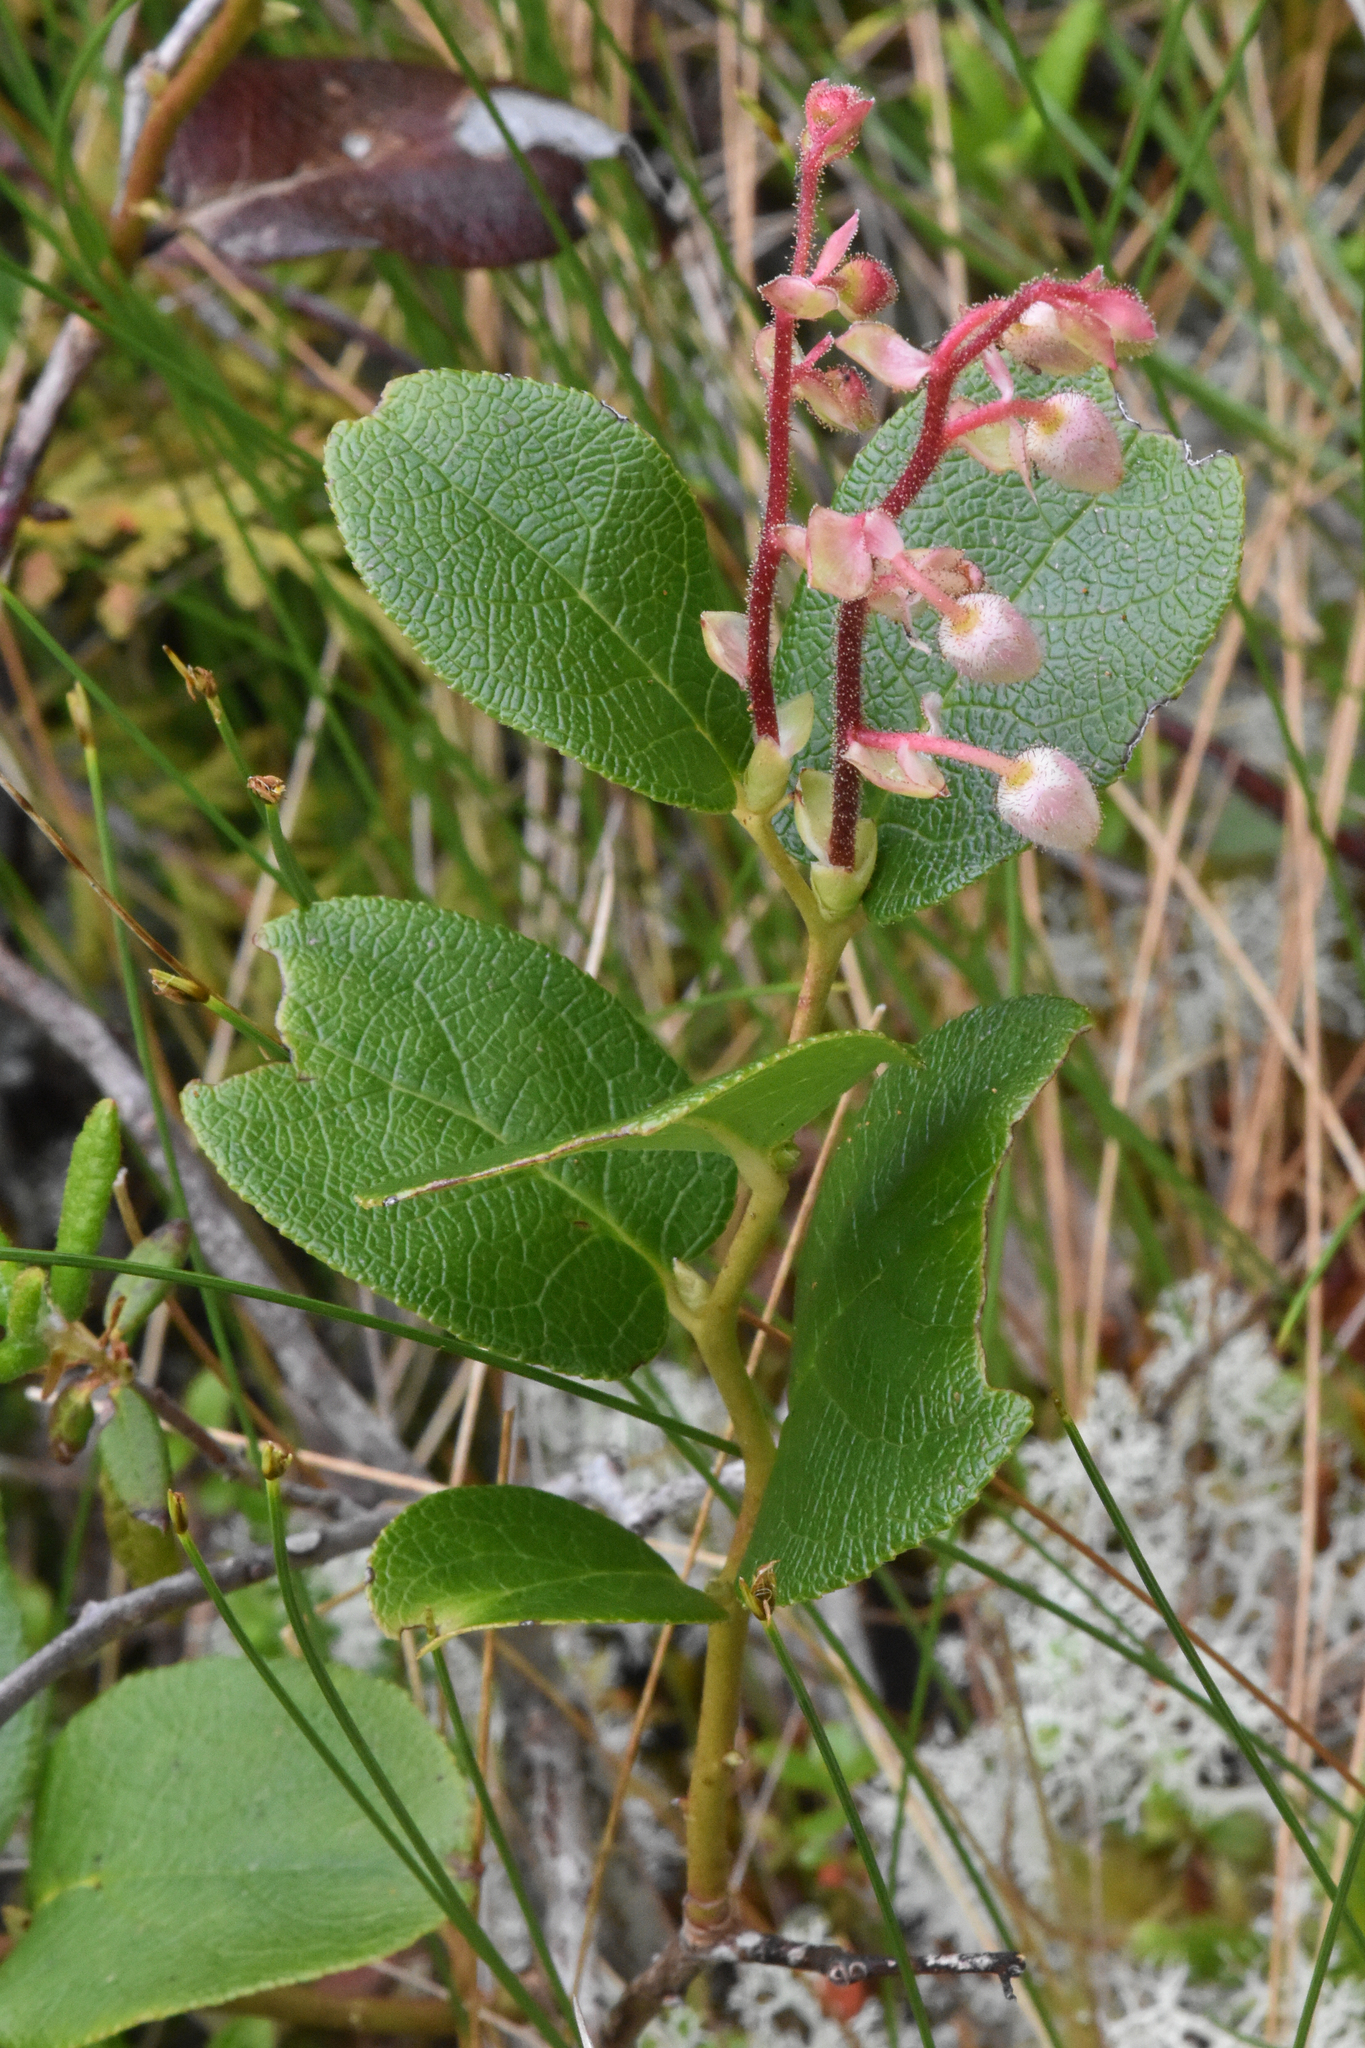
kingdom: Plantae
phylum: Tracheophyta
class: Magnoliopsida
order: Ericales
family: Ericaceae
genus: Gaultheria
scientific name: Gaultheria shallon
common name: Shallon
